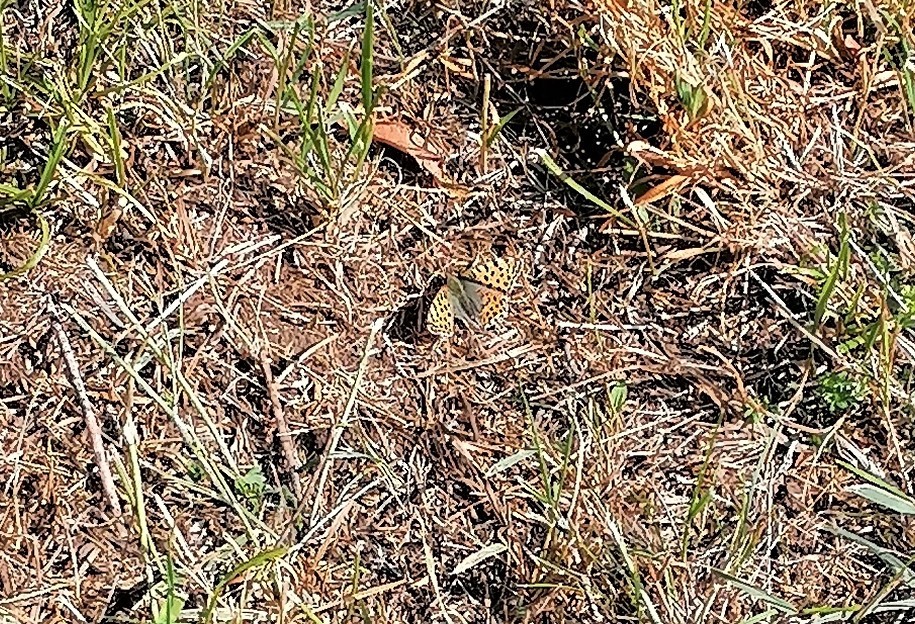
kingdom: Animalia
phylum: Arthropoda
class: Insecta
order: Lepidoptera
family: Nymphalidae
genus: Issoria
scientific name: Issoria lathonia
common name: Queen of spain fritillary
